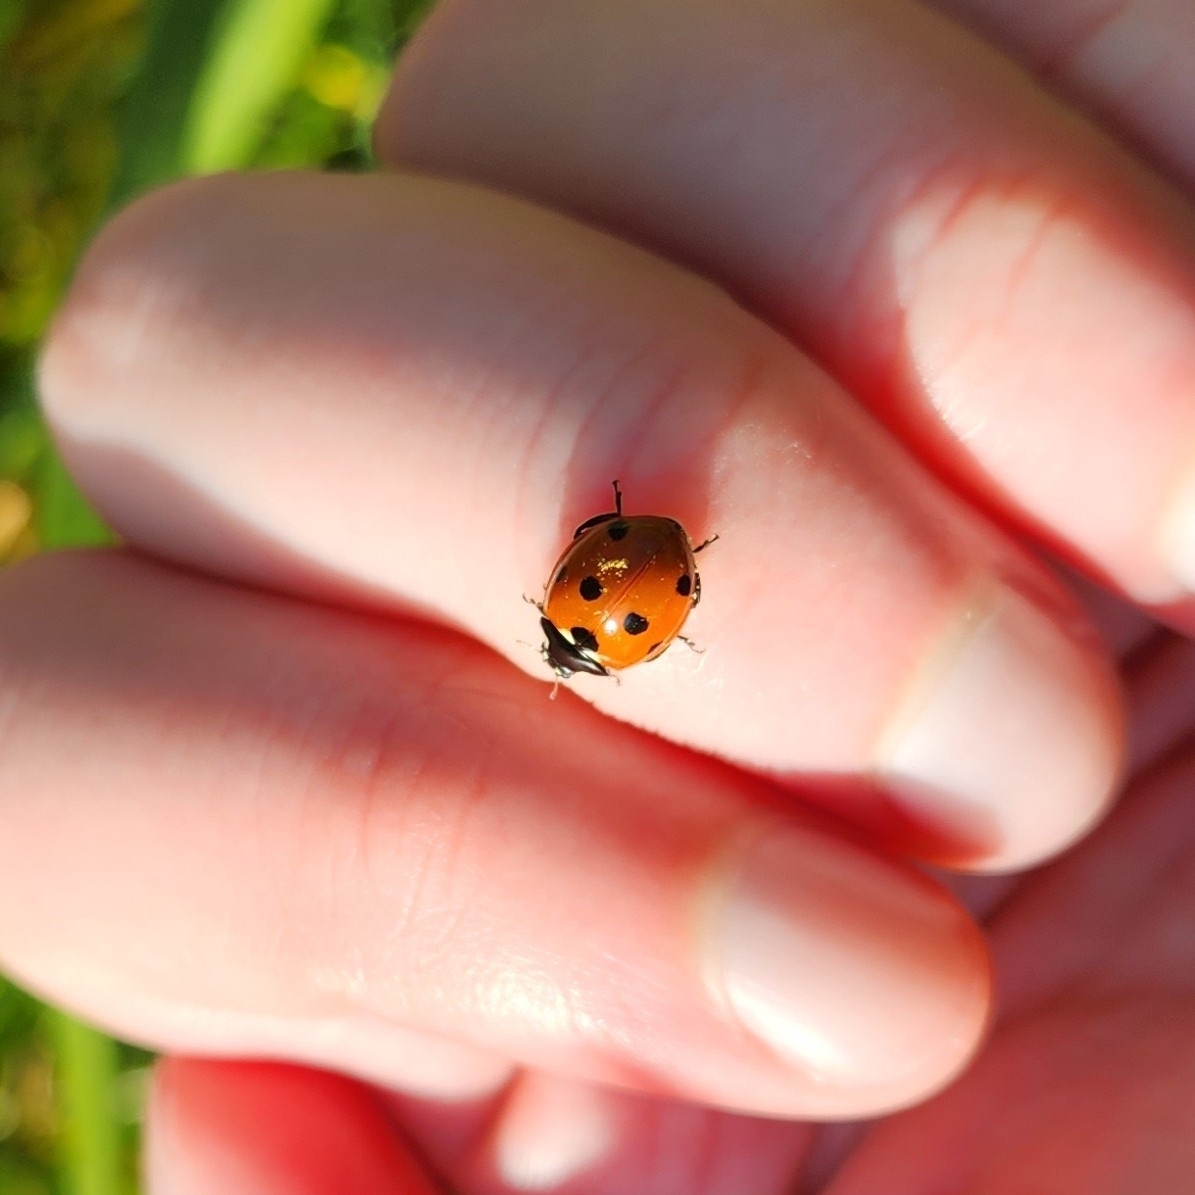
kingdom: Animalia
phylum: Arthropoda
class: Insecta
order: Coleoptera
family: Coccinellidae
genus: Coccinella
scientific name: Coccinella septempunctata
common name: Sevenspotted lady beetle
